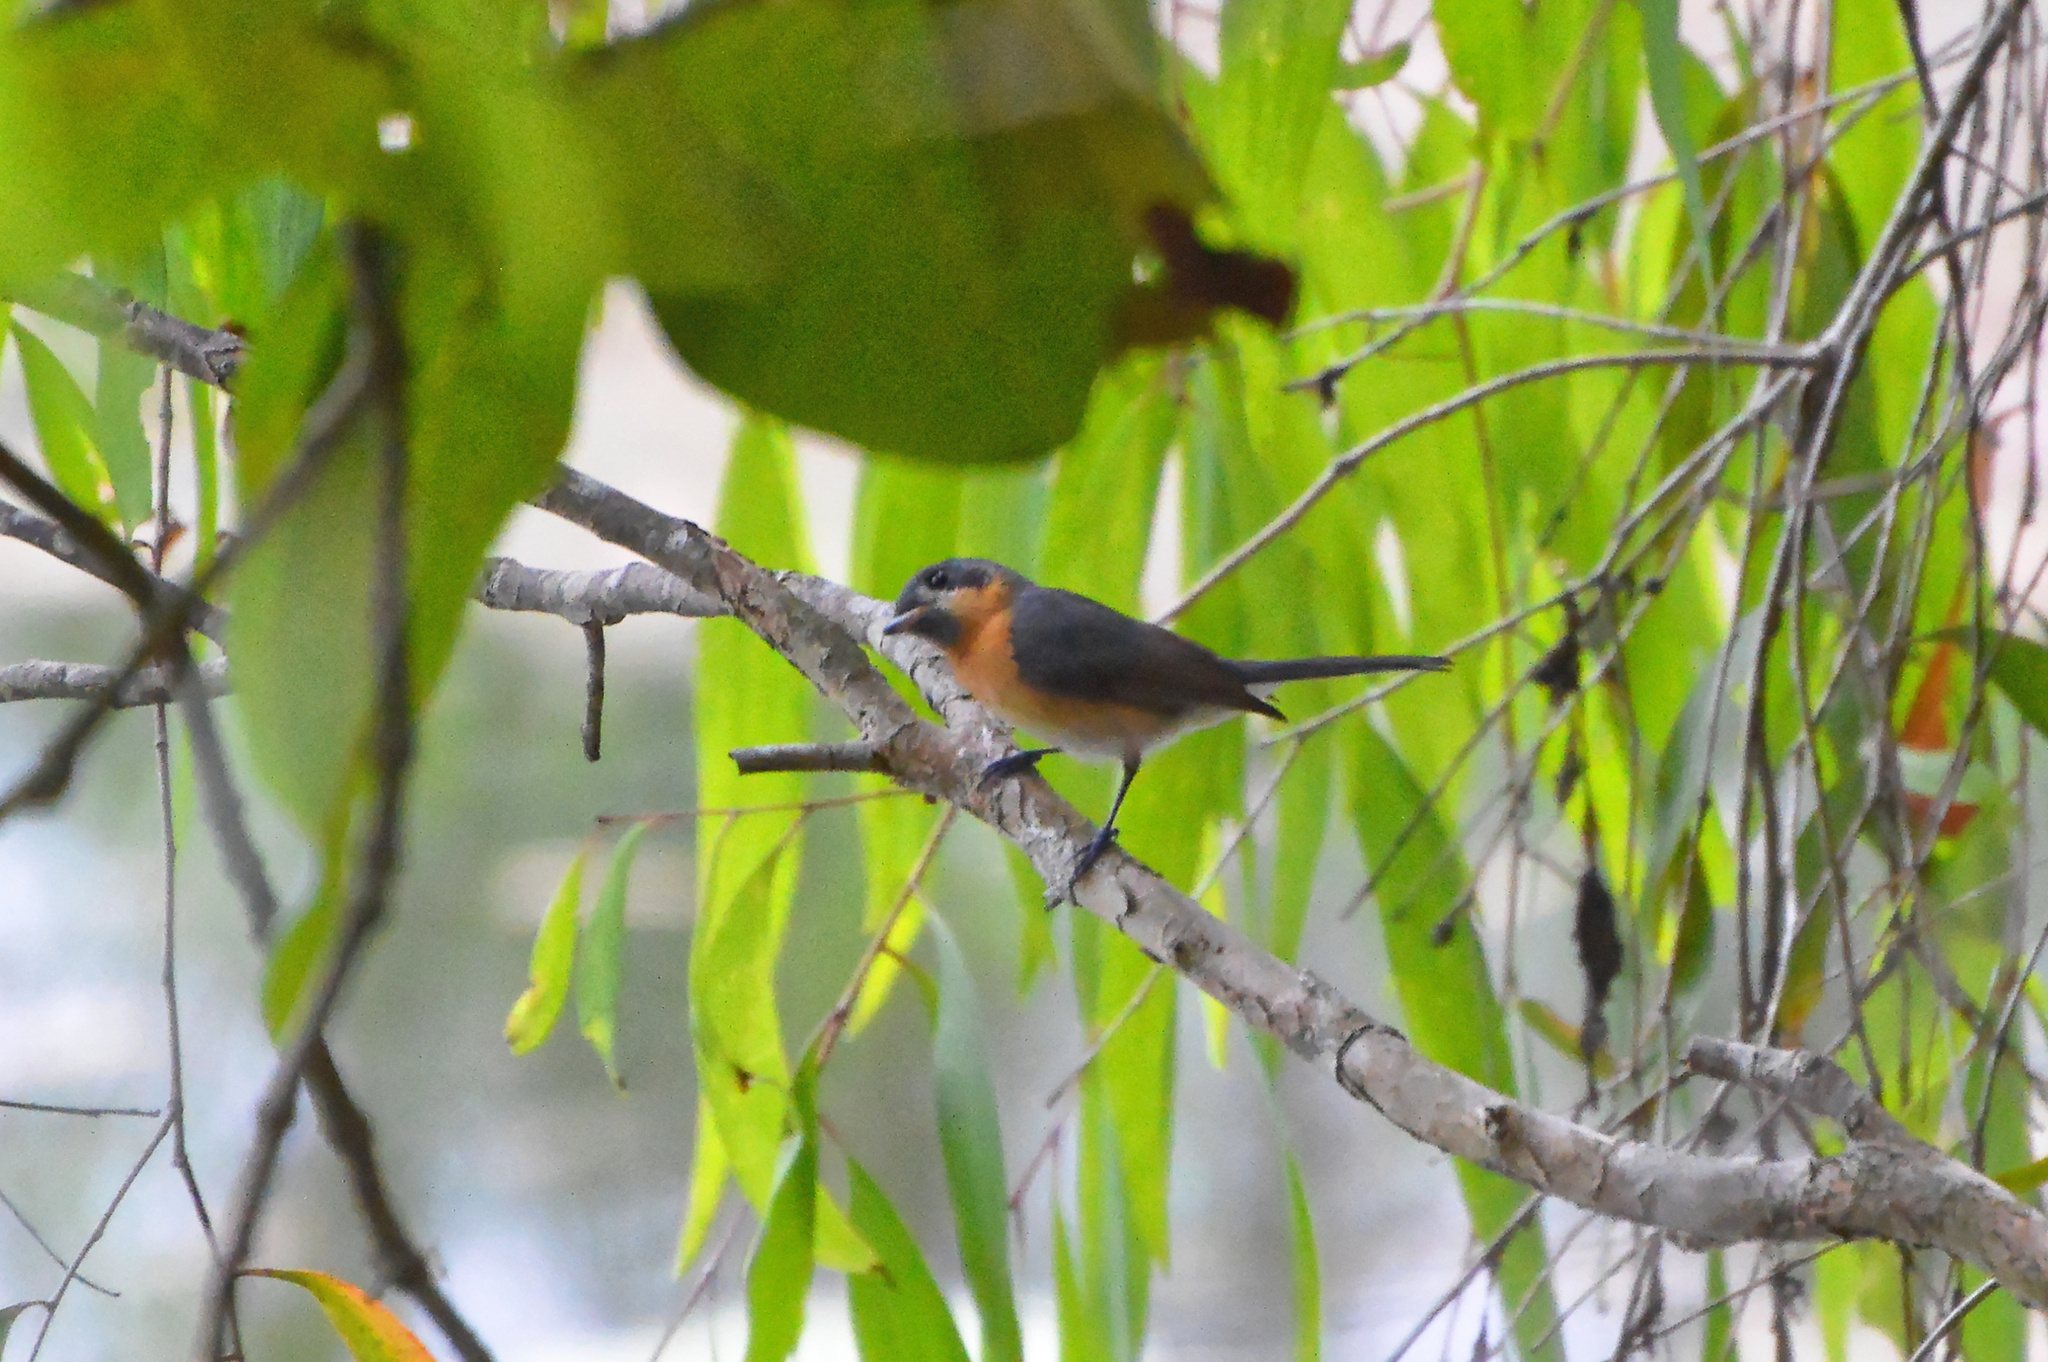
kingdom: Animalia
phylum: Chordata
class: Aves
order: Passeriformes
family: Monarchidae
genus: Symposiachrus
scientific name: Symposiachrus trivirgatus
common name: Spectacled monarch
